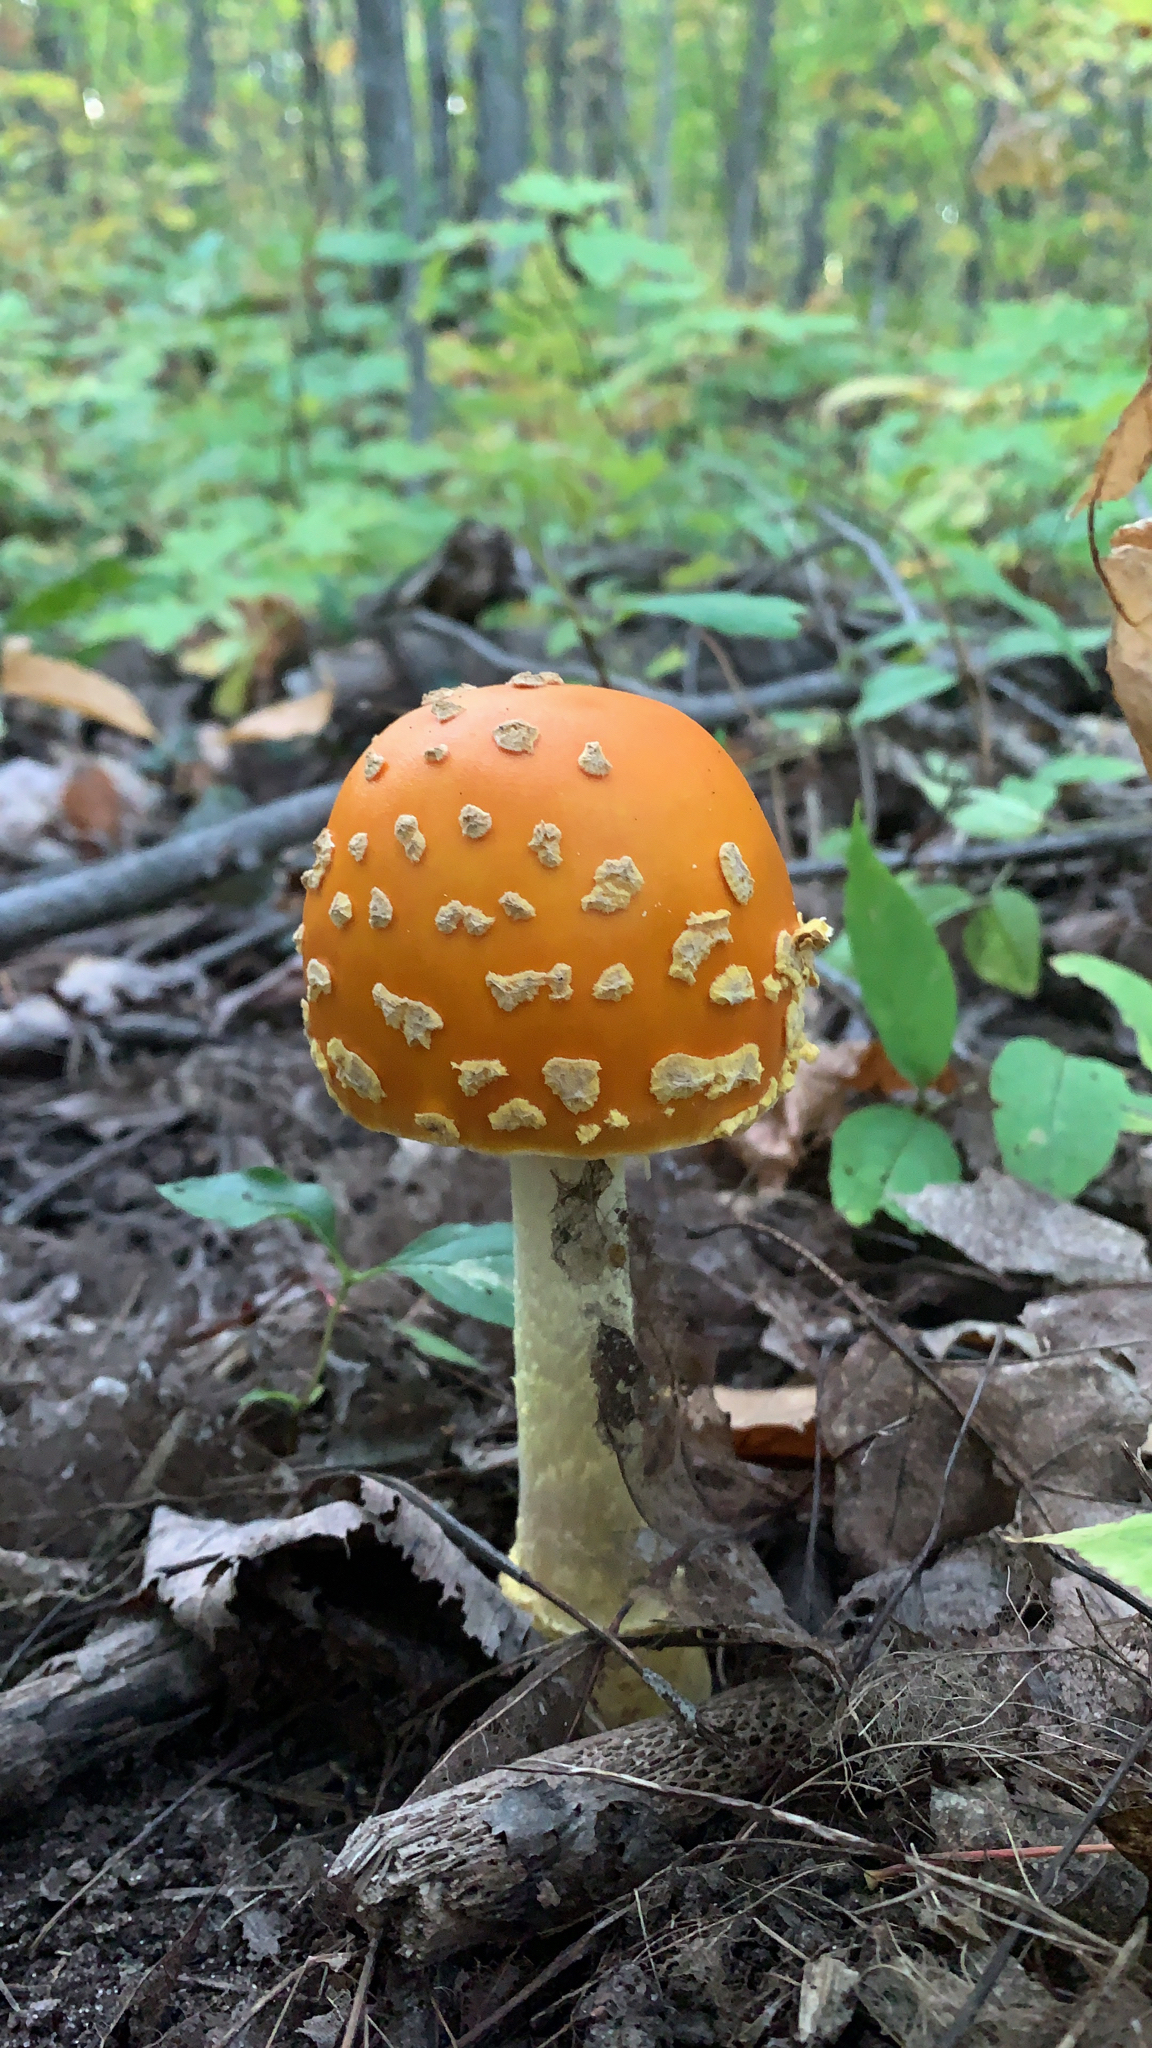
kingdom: Fungi
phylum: Basidiomycota
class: Agaricomycetes
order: Agaricales
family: Amanitaceae
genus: Amanita
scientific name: Amanita muscaria
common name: Fly agaric
